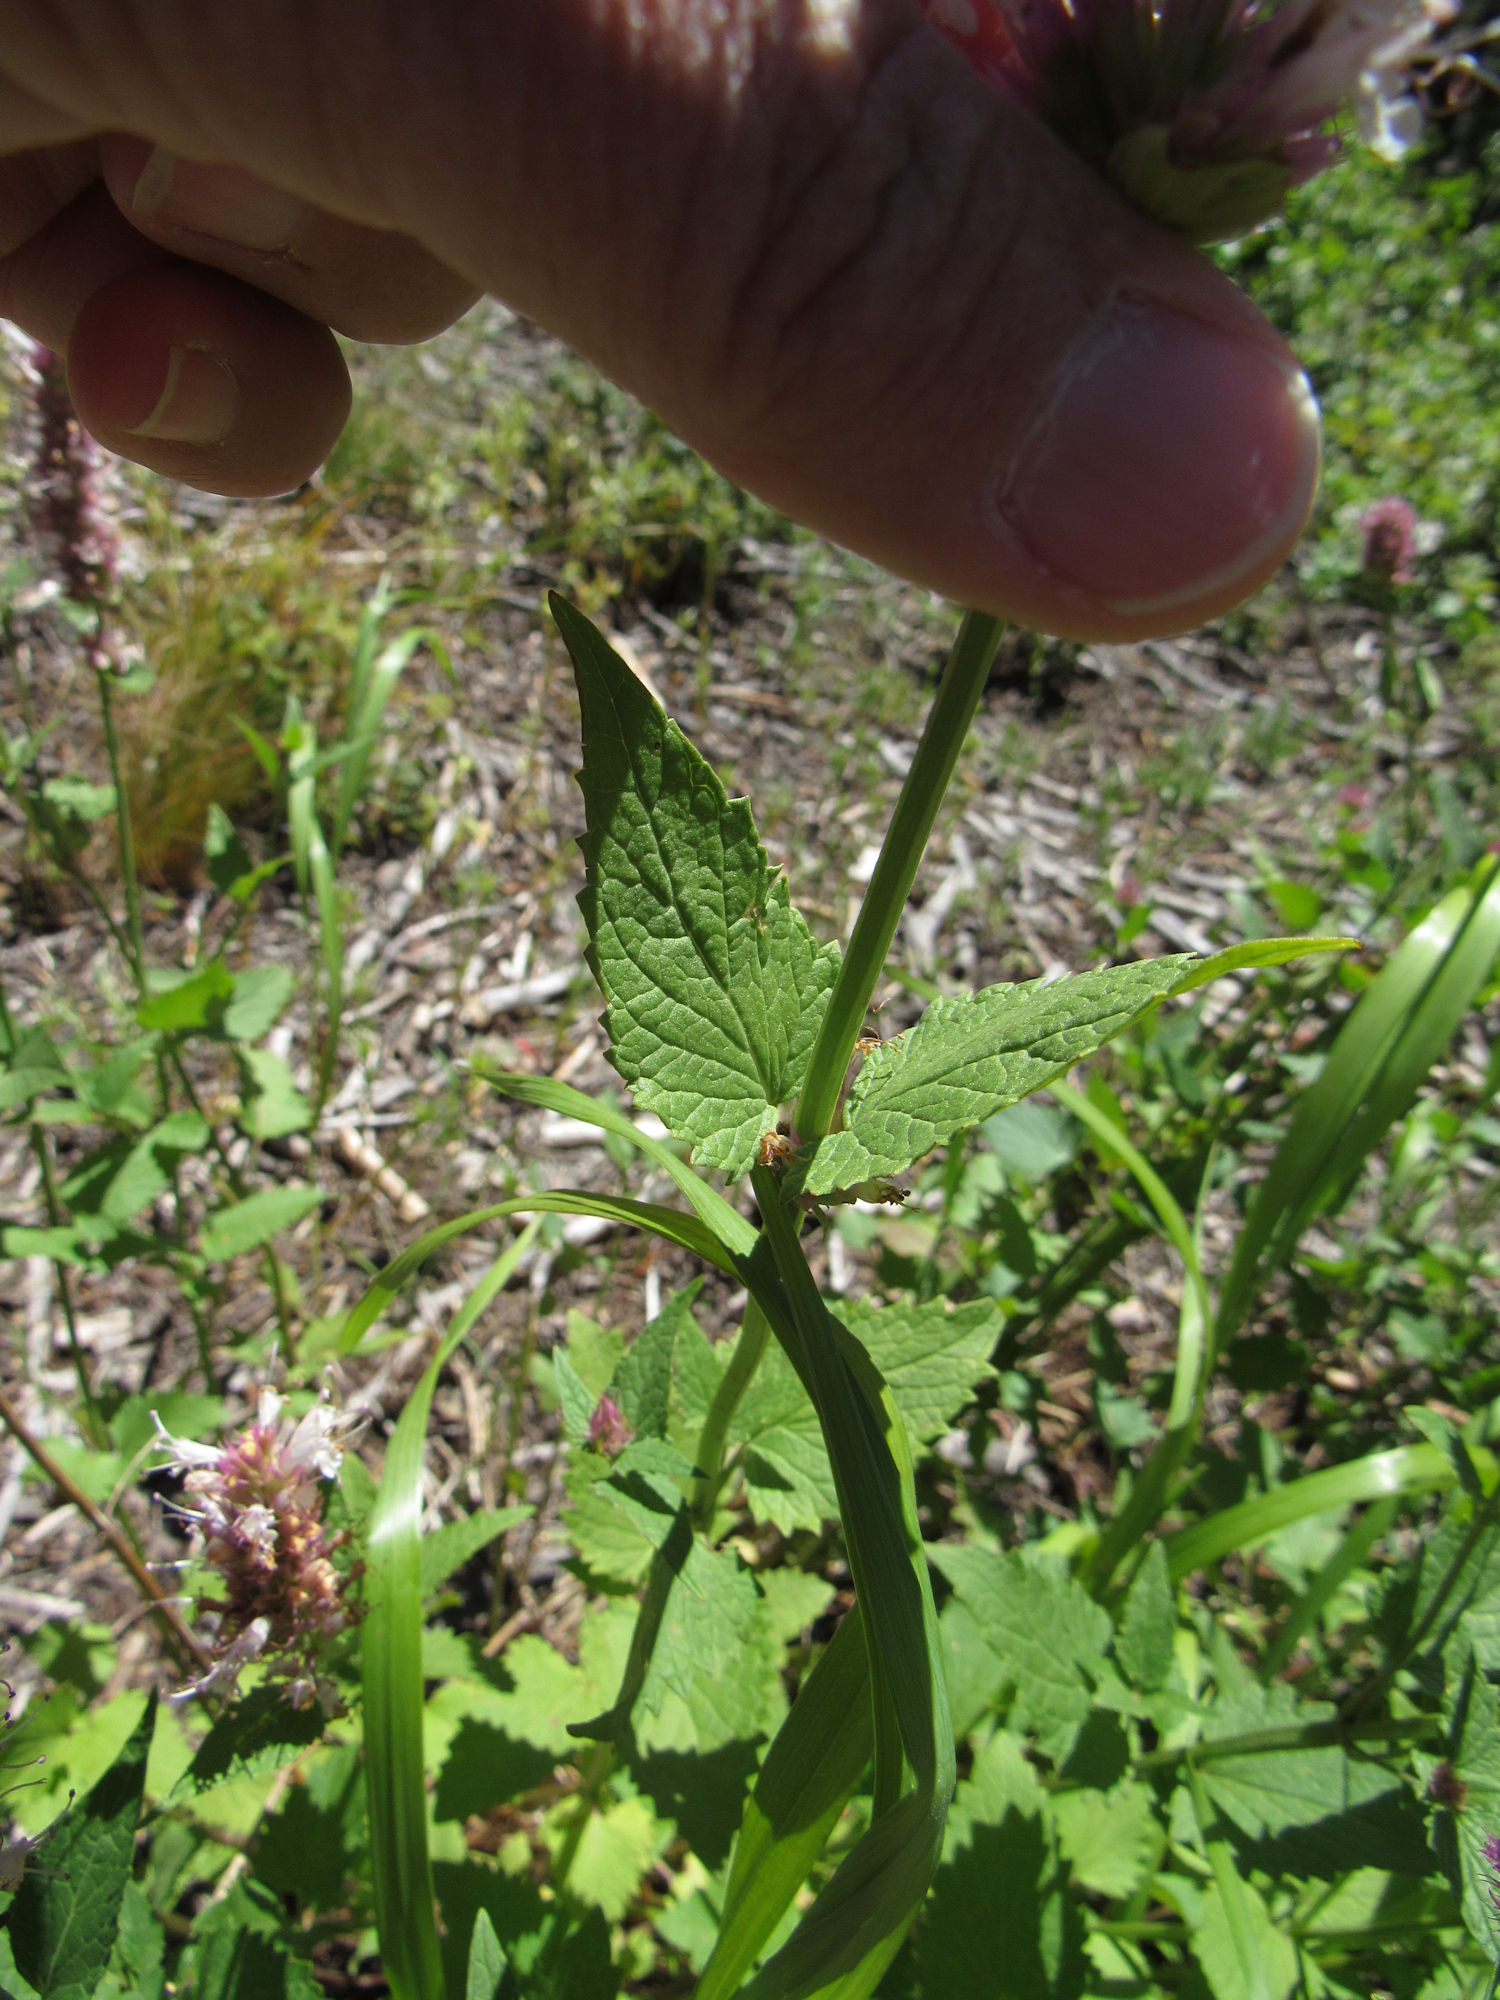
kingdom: Plantae
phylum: Tracheophyta
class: Magnoliopsida
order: Lamiales
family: Lamiaceae
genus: Agastache
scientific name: Agastache urticifolia
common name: Horsemint giant hyssop
